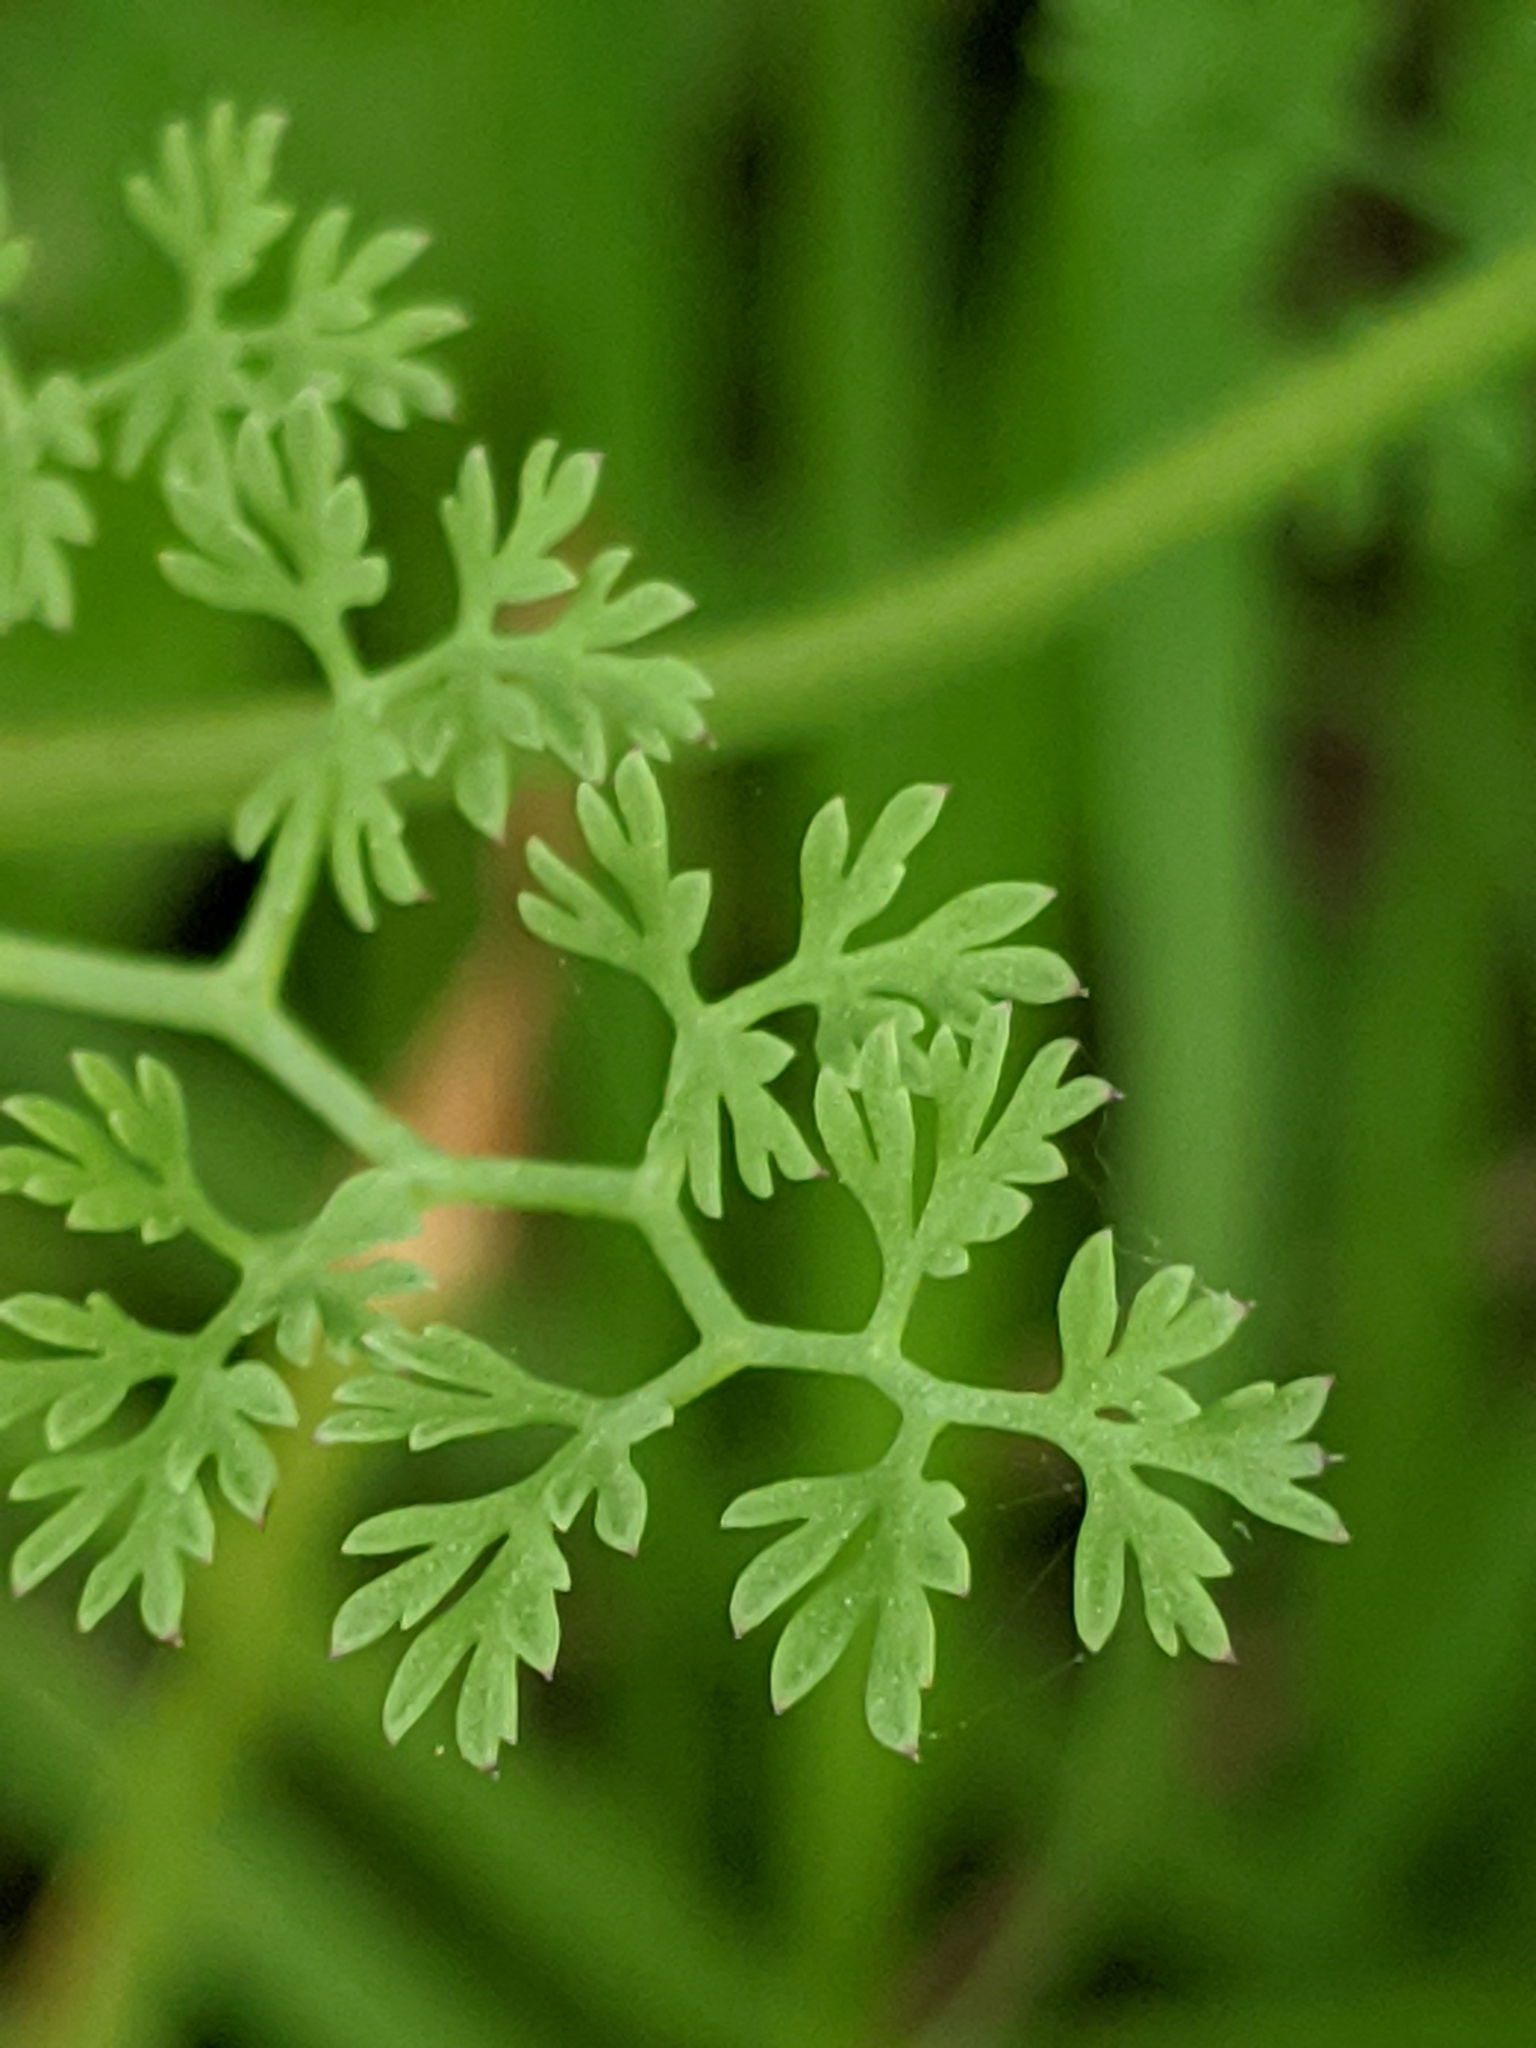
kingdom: Plantae
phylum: Tracheophyta
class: Magnoliopsida
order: Ranunculales
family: Papaveraceae
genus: Fumaria
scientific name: Fumaria densiflora
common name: Dense-flowered fumitory
